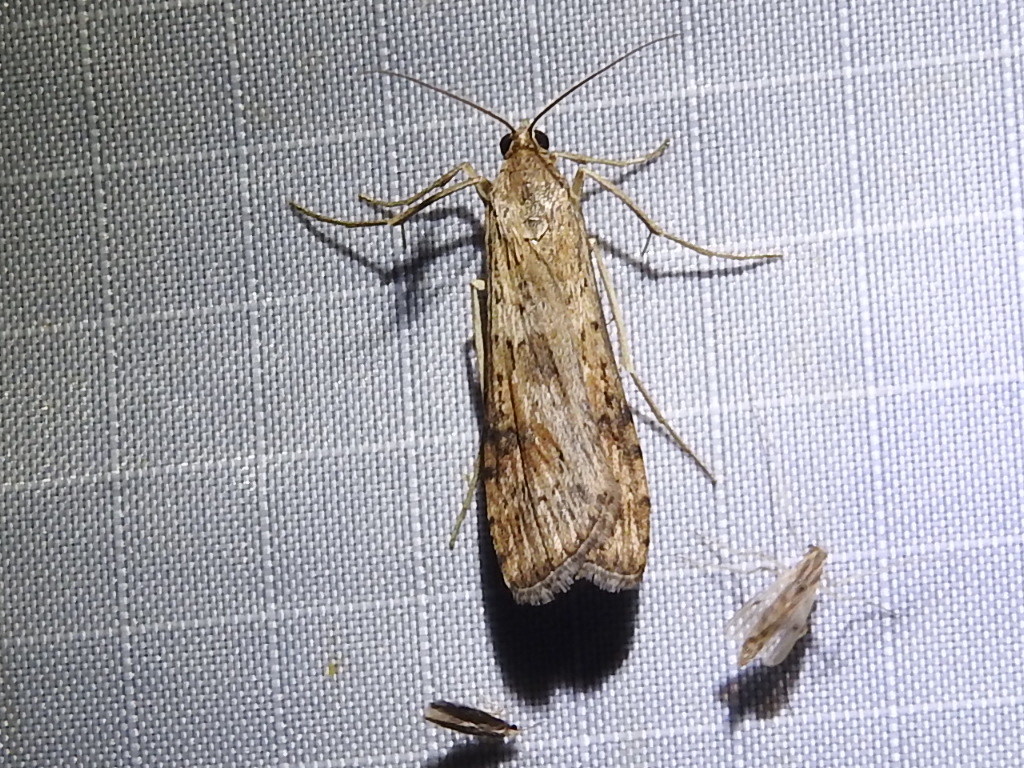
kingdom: Animalia
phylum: Arthropoda
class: Insecta
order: Lepidoptera
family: Crambidae
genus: Nomophila
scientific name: Nomophila nearctica
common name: American rush veneer
